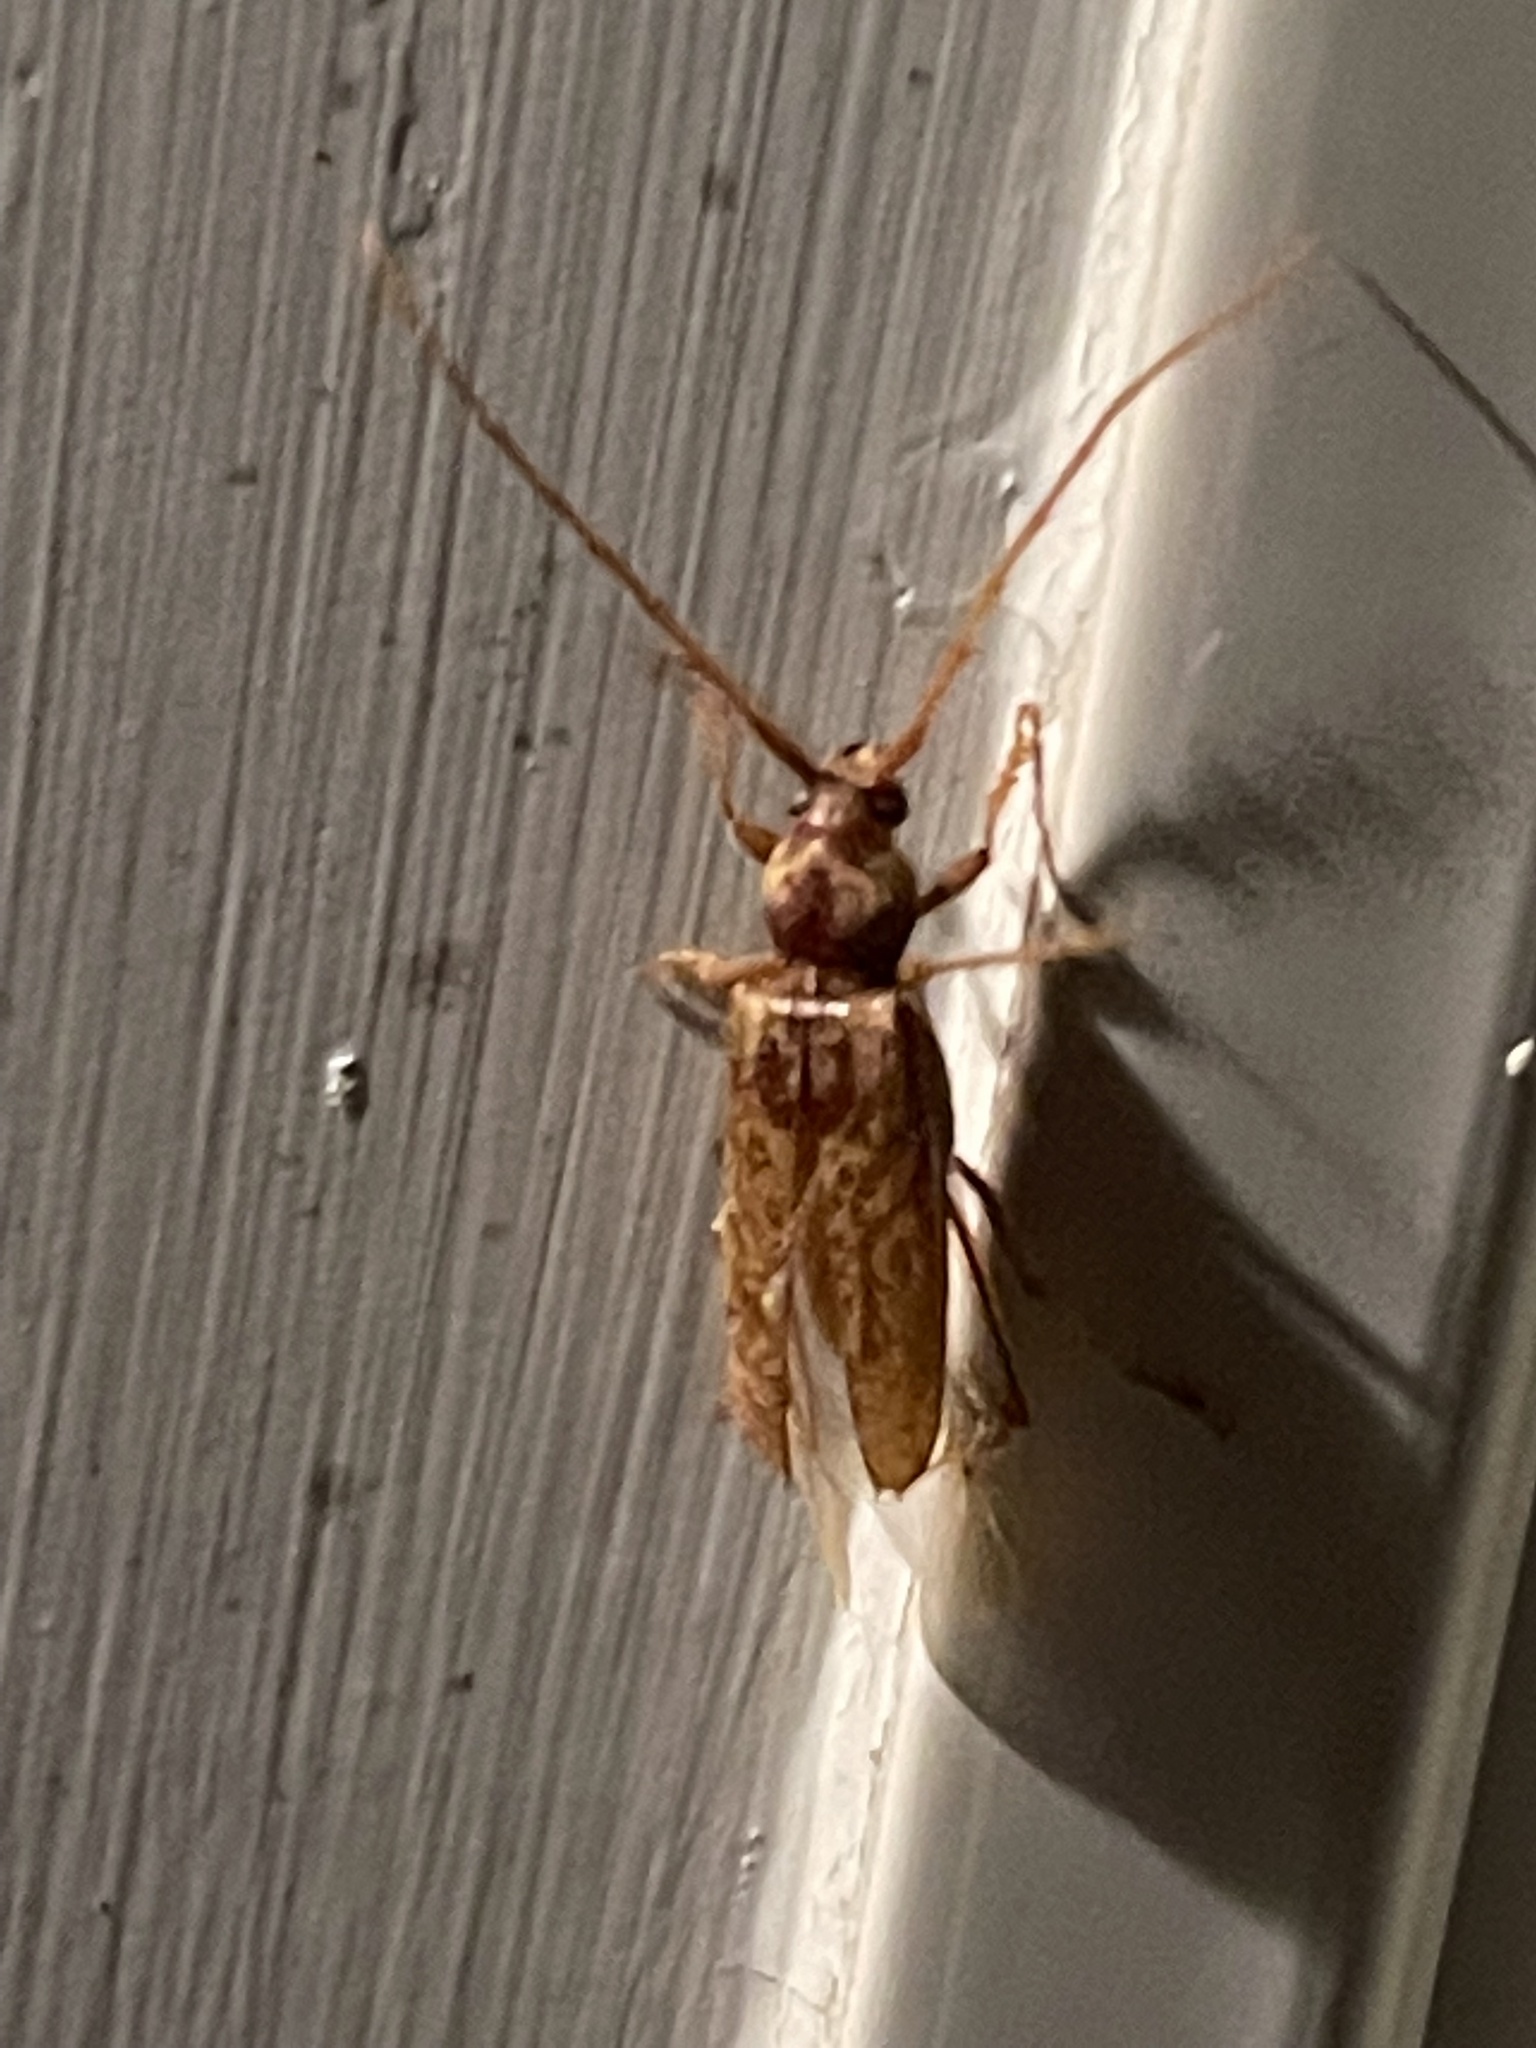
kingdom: Animalia
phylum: Arthropoda
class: Insecta
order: Coleoptera
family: Cerambycidae
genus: Enaphalodes
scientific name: Enaphalodes rufulus
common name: Red oak borer
